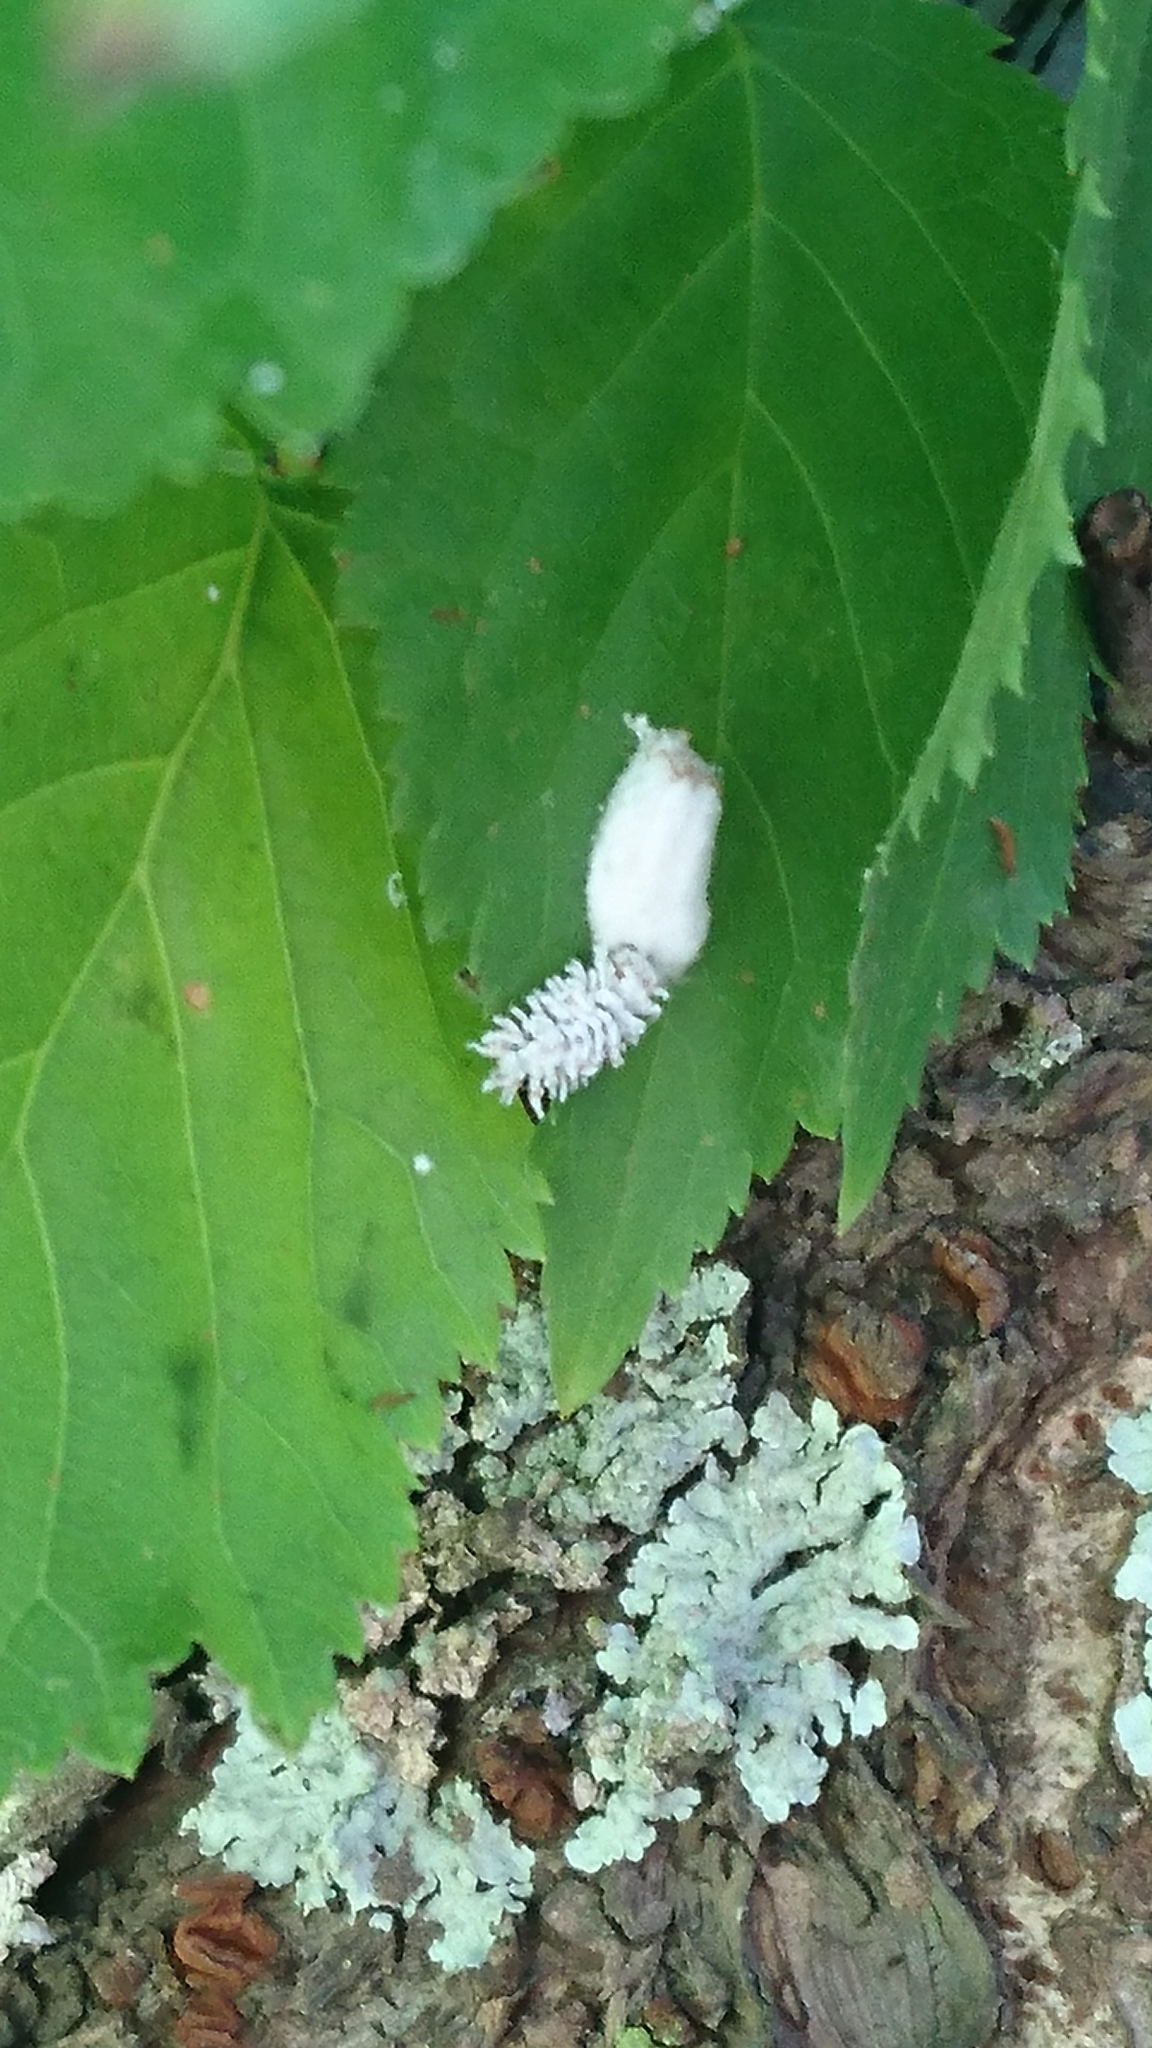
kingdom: Animalia
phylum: Arthropoda
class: Insecta
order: Coleoptera
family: Coccinellidae
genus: Cryptolaemus
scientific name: Cryptolaemus montrouzieri
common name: Mealybug destroyer
